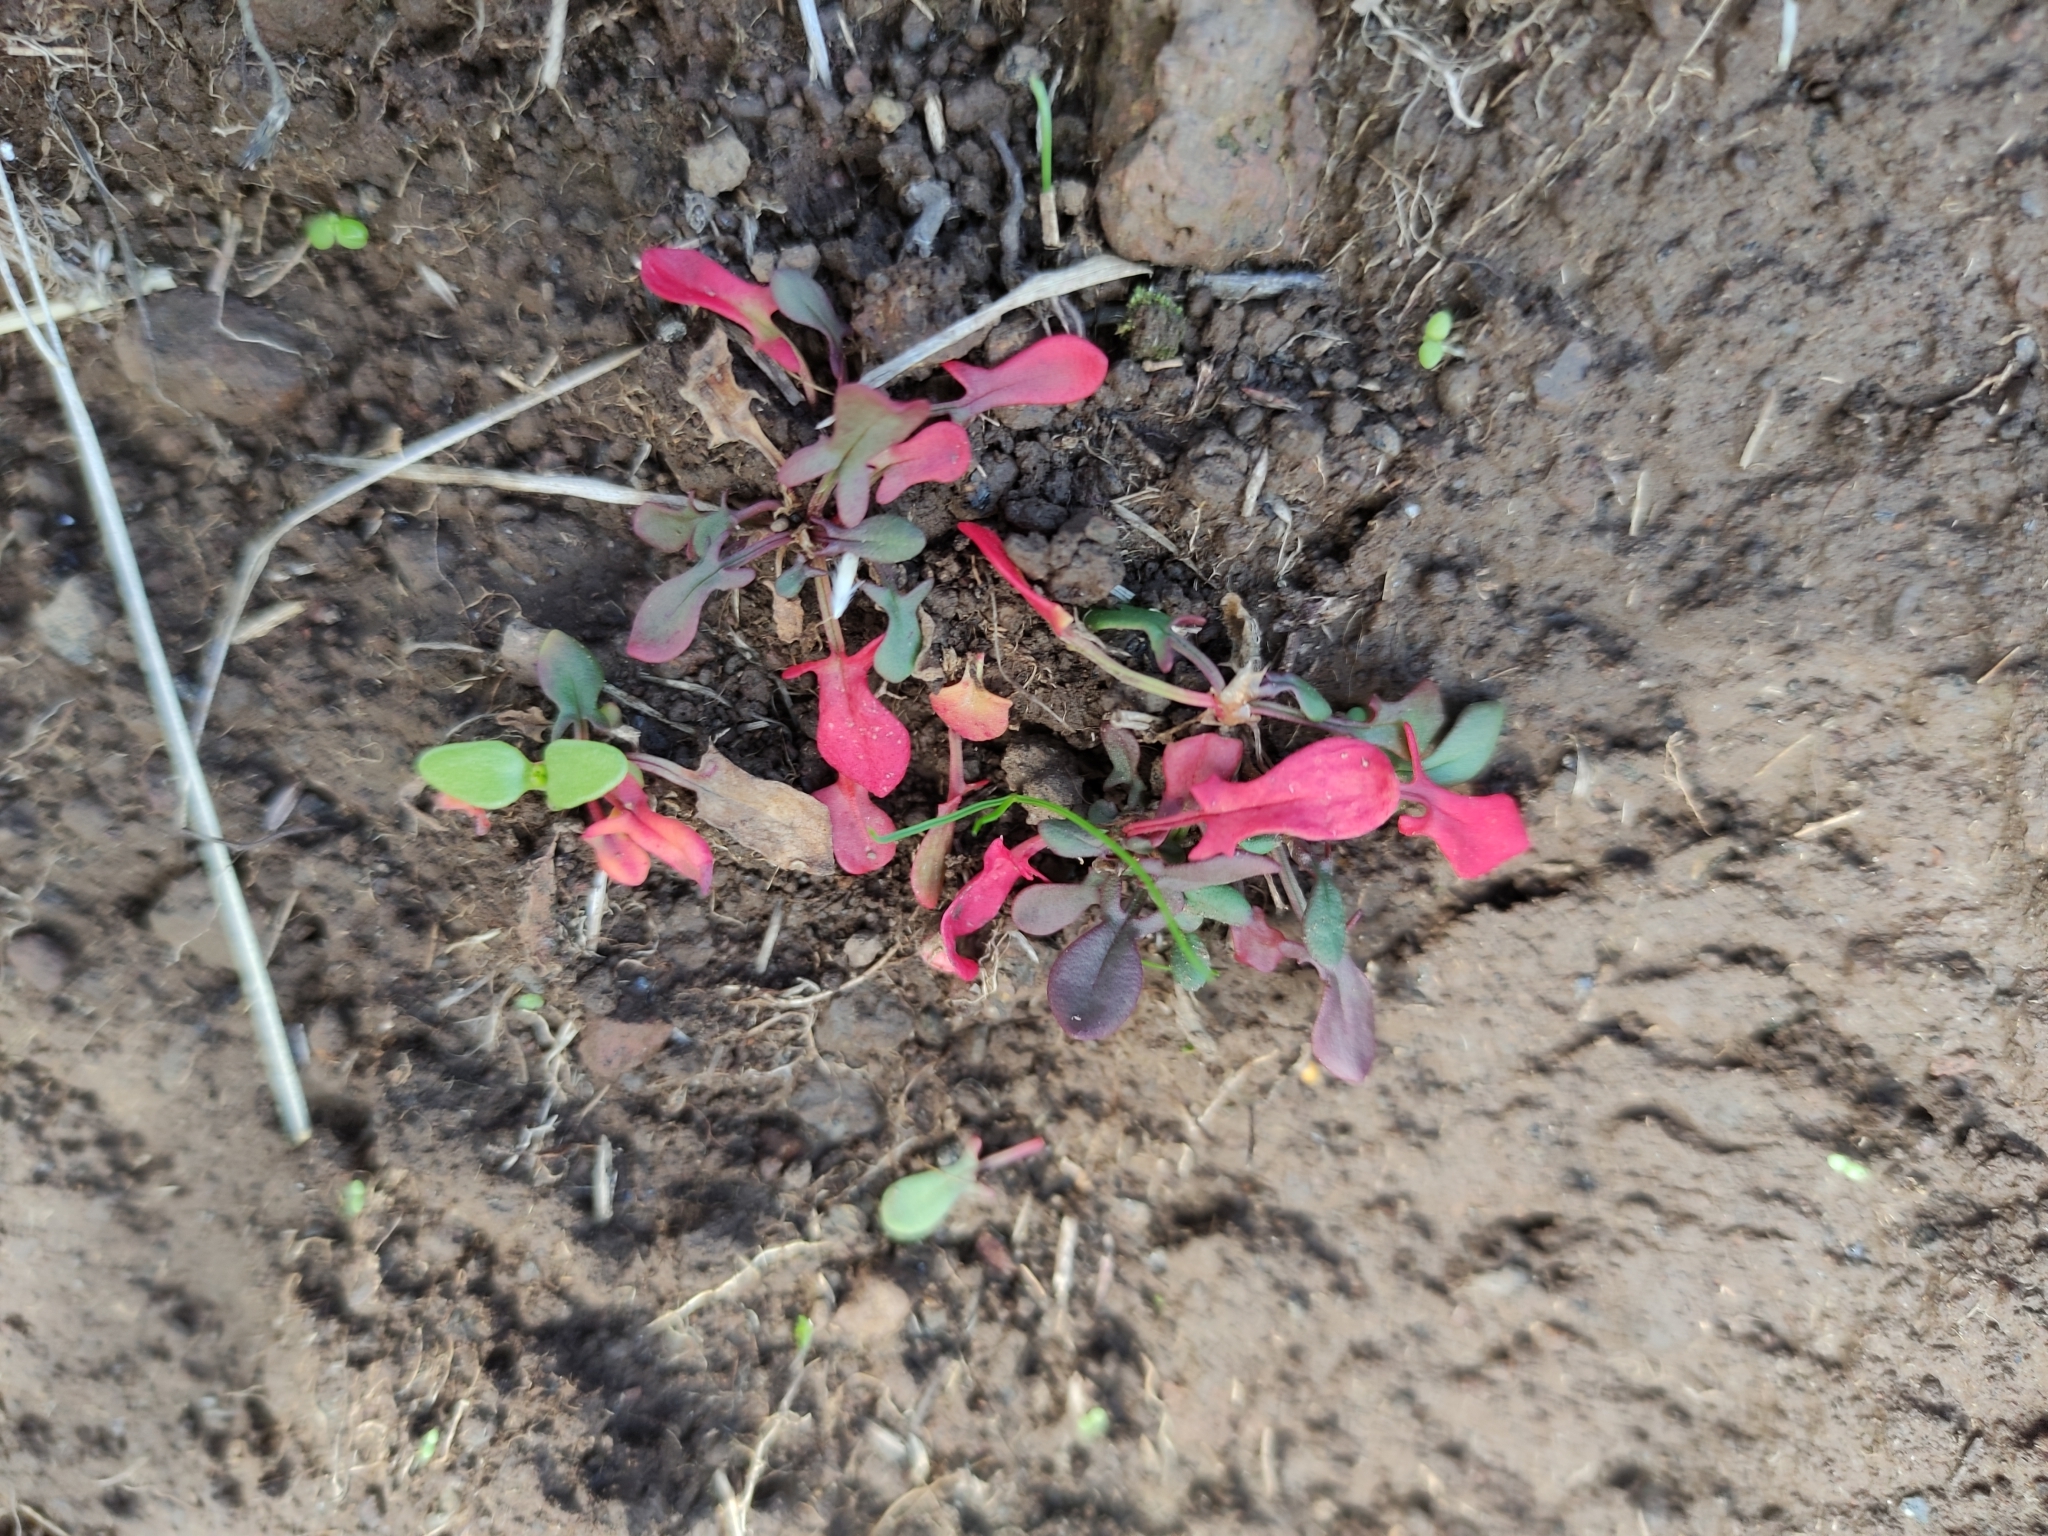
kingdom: Plantae
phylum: Tracheophyta
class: Magnoliopsida
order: Caryophyllales
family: Polygonaceae
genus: Rumex
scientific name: Rumex acetosella
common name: Common sheep sorrel
